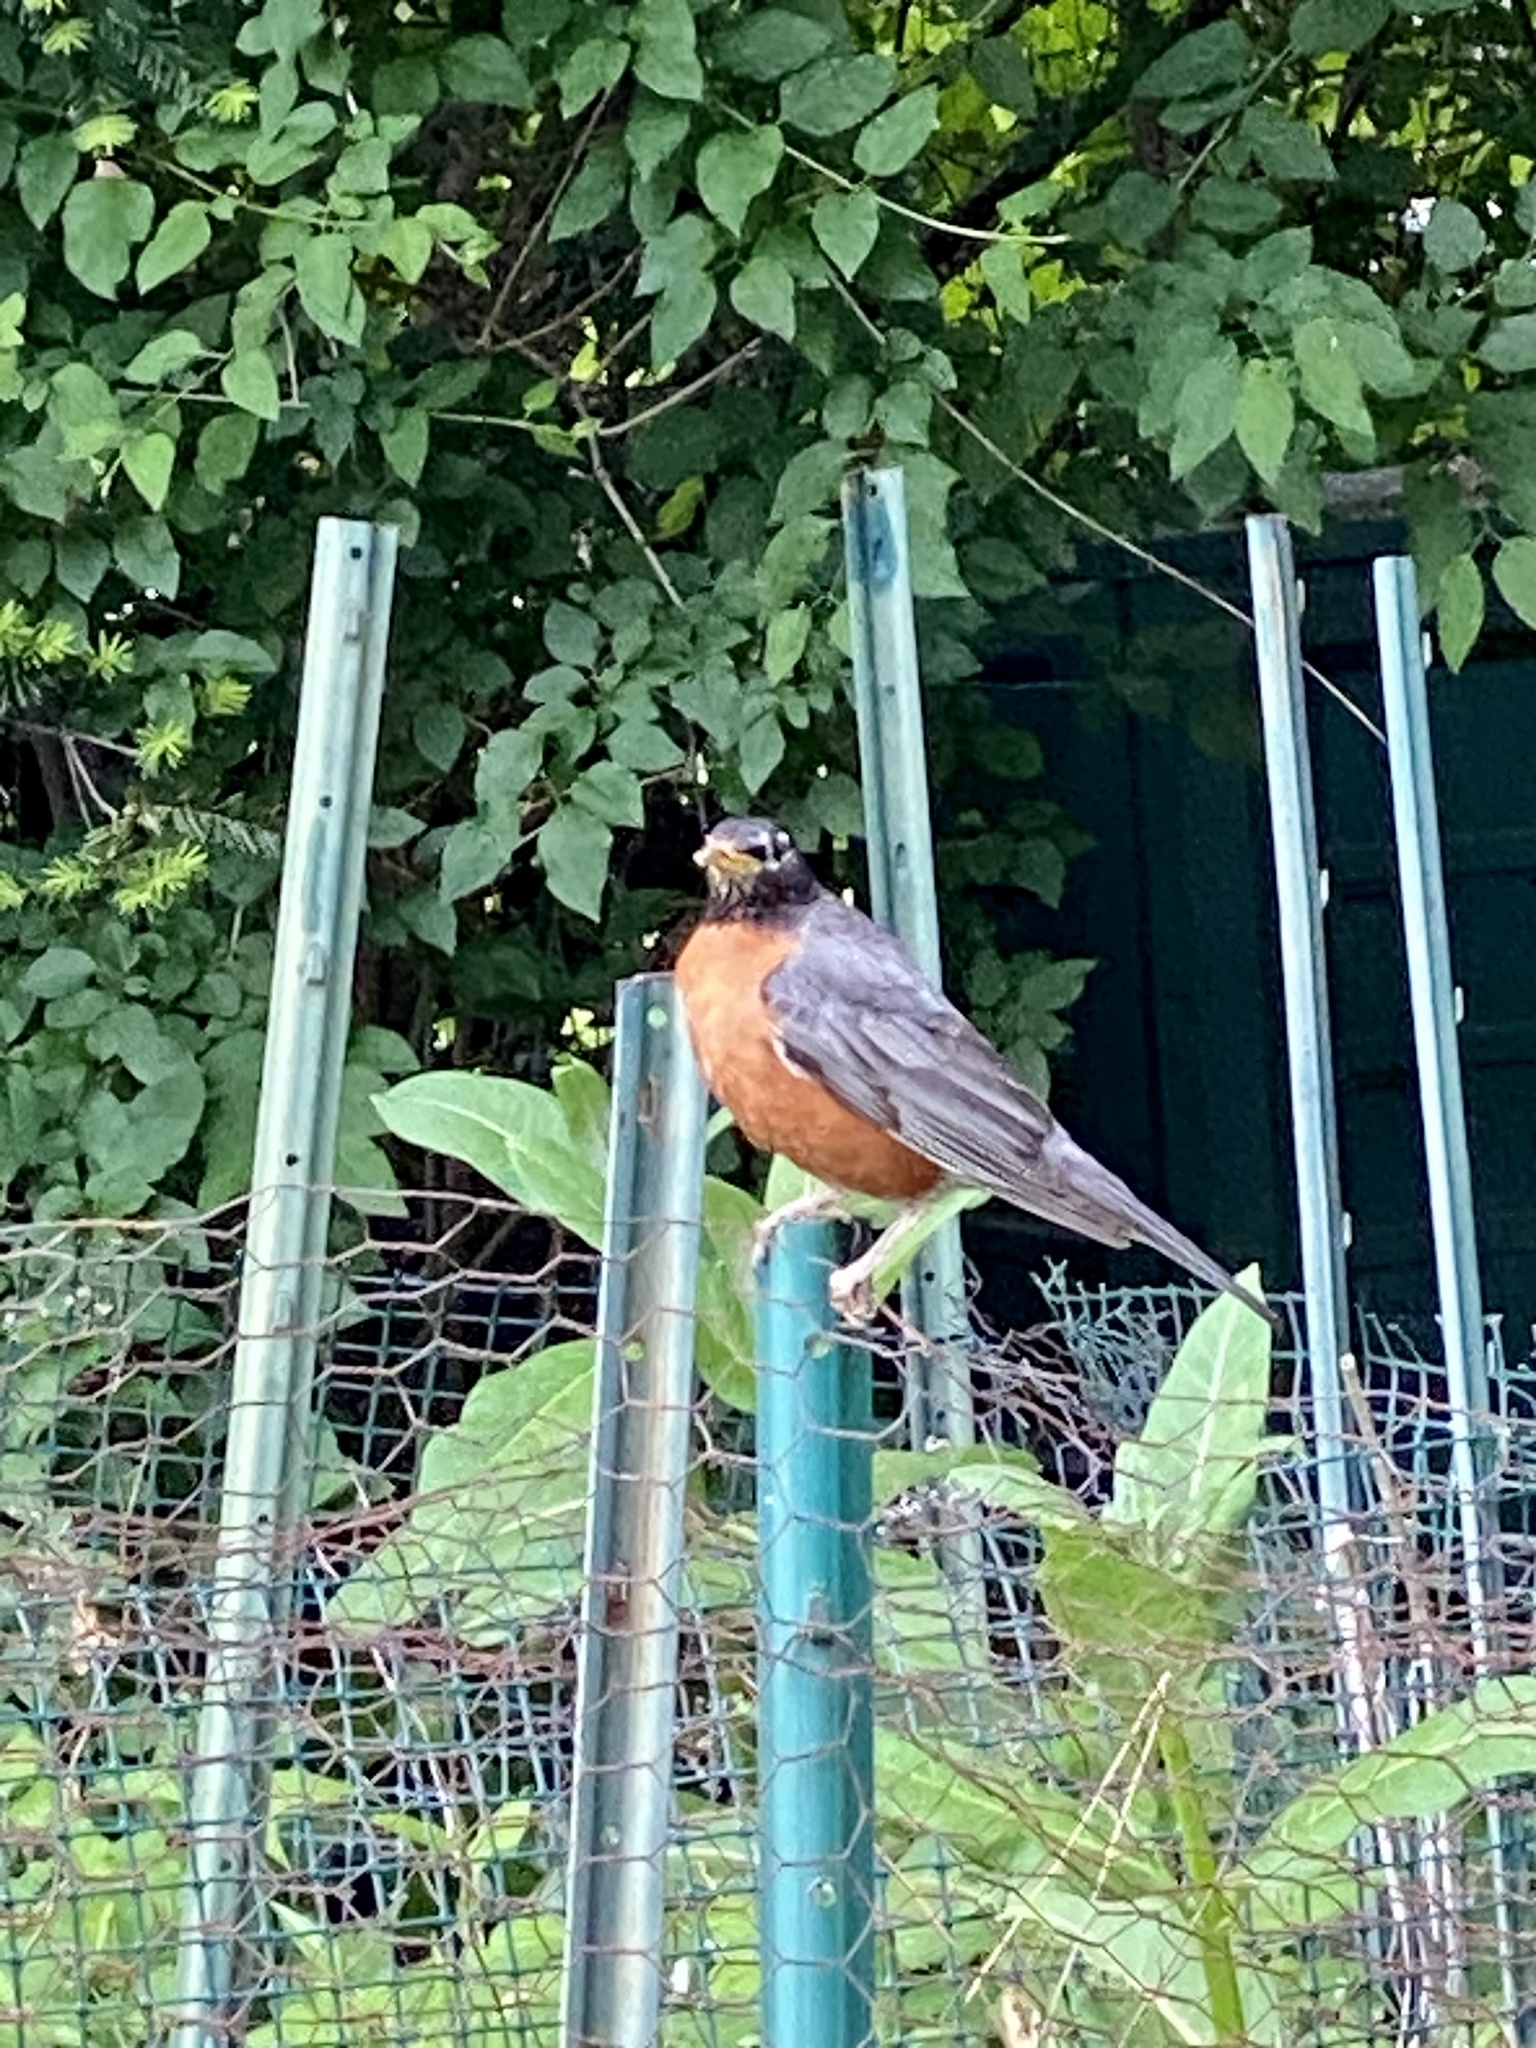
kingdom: Animalia
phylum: Chordata
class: Aves
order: Passeriformes
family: Turdidae
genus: Turdus
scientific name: Turdus migratorius
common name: American robin
